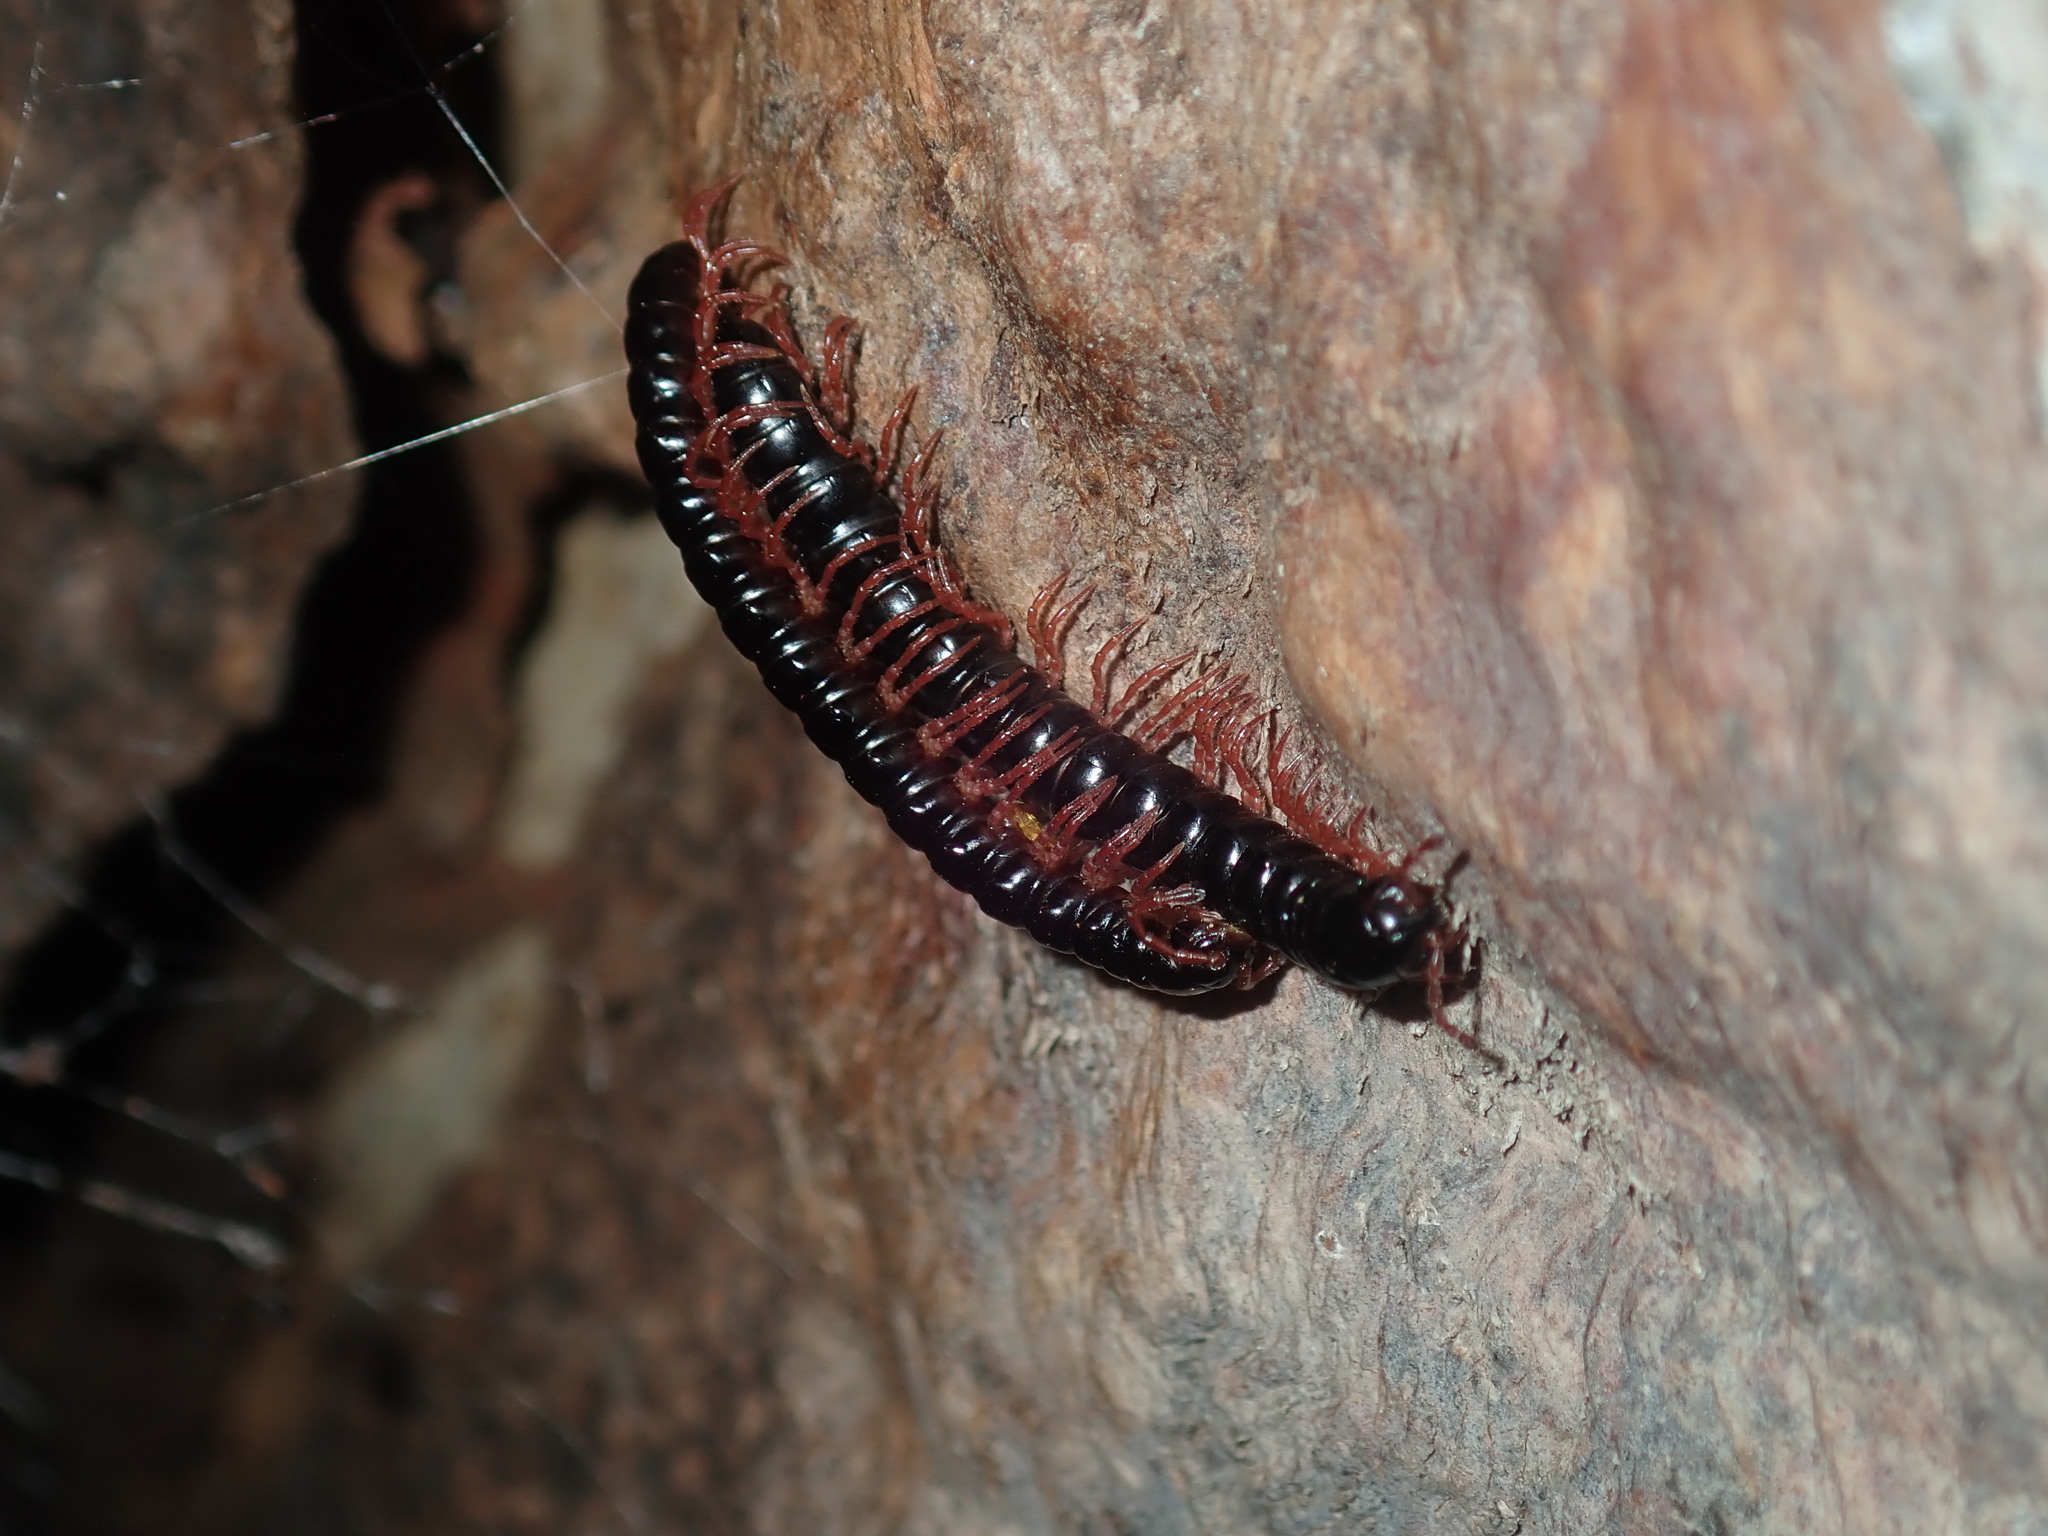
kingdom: Animalia
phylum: Arthropoda
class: Diplopoda
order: Polydesmida
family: Paradoxosomatidae
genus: Heterocladosoma
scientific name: Heterocladosoma
